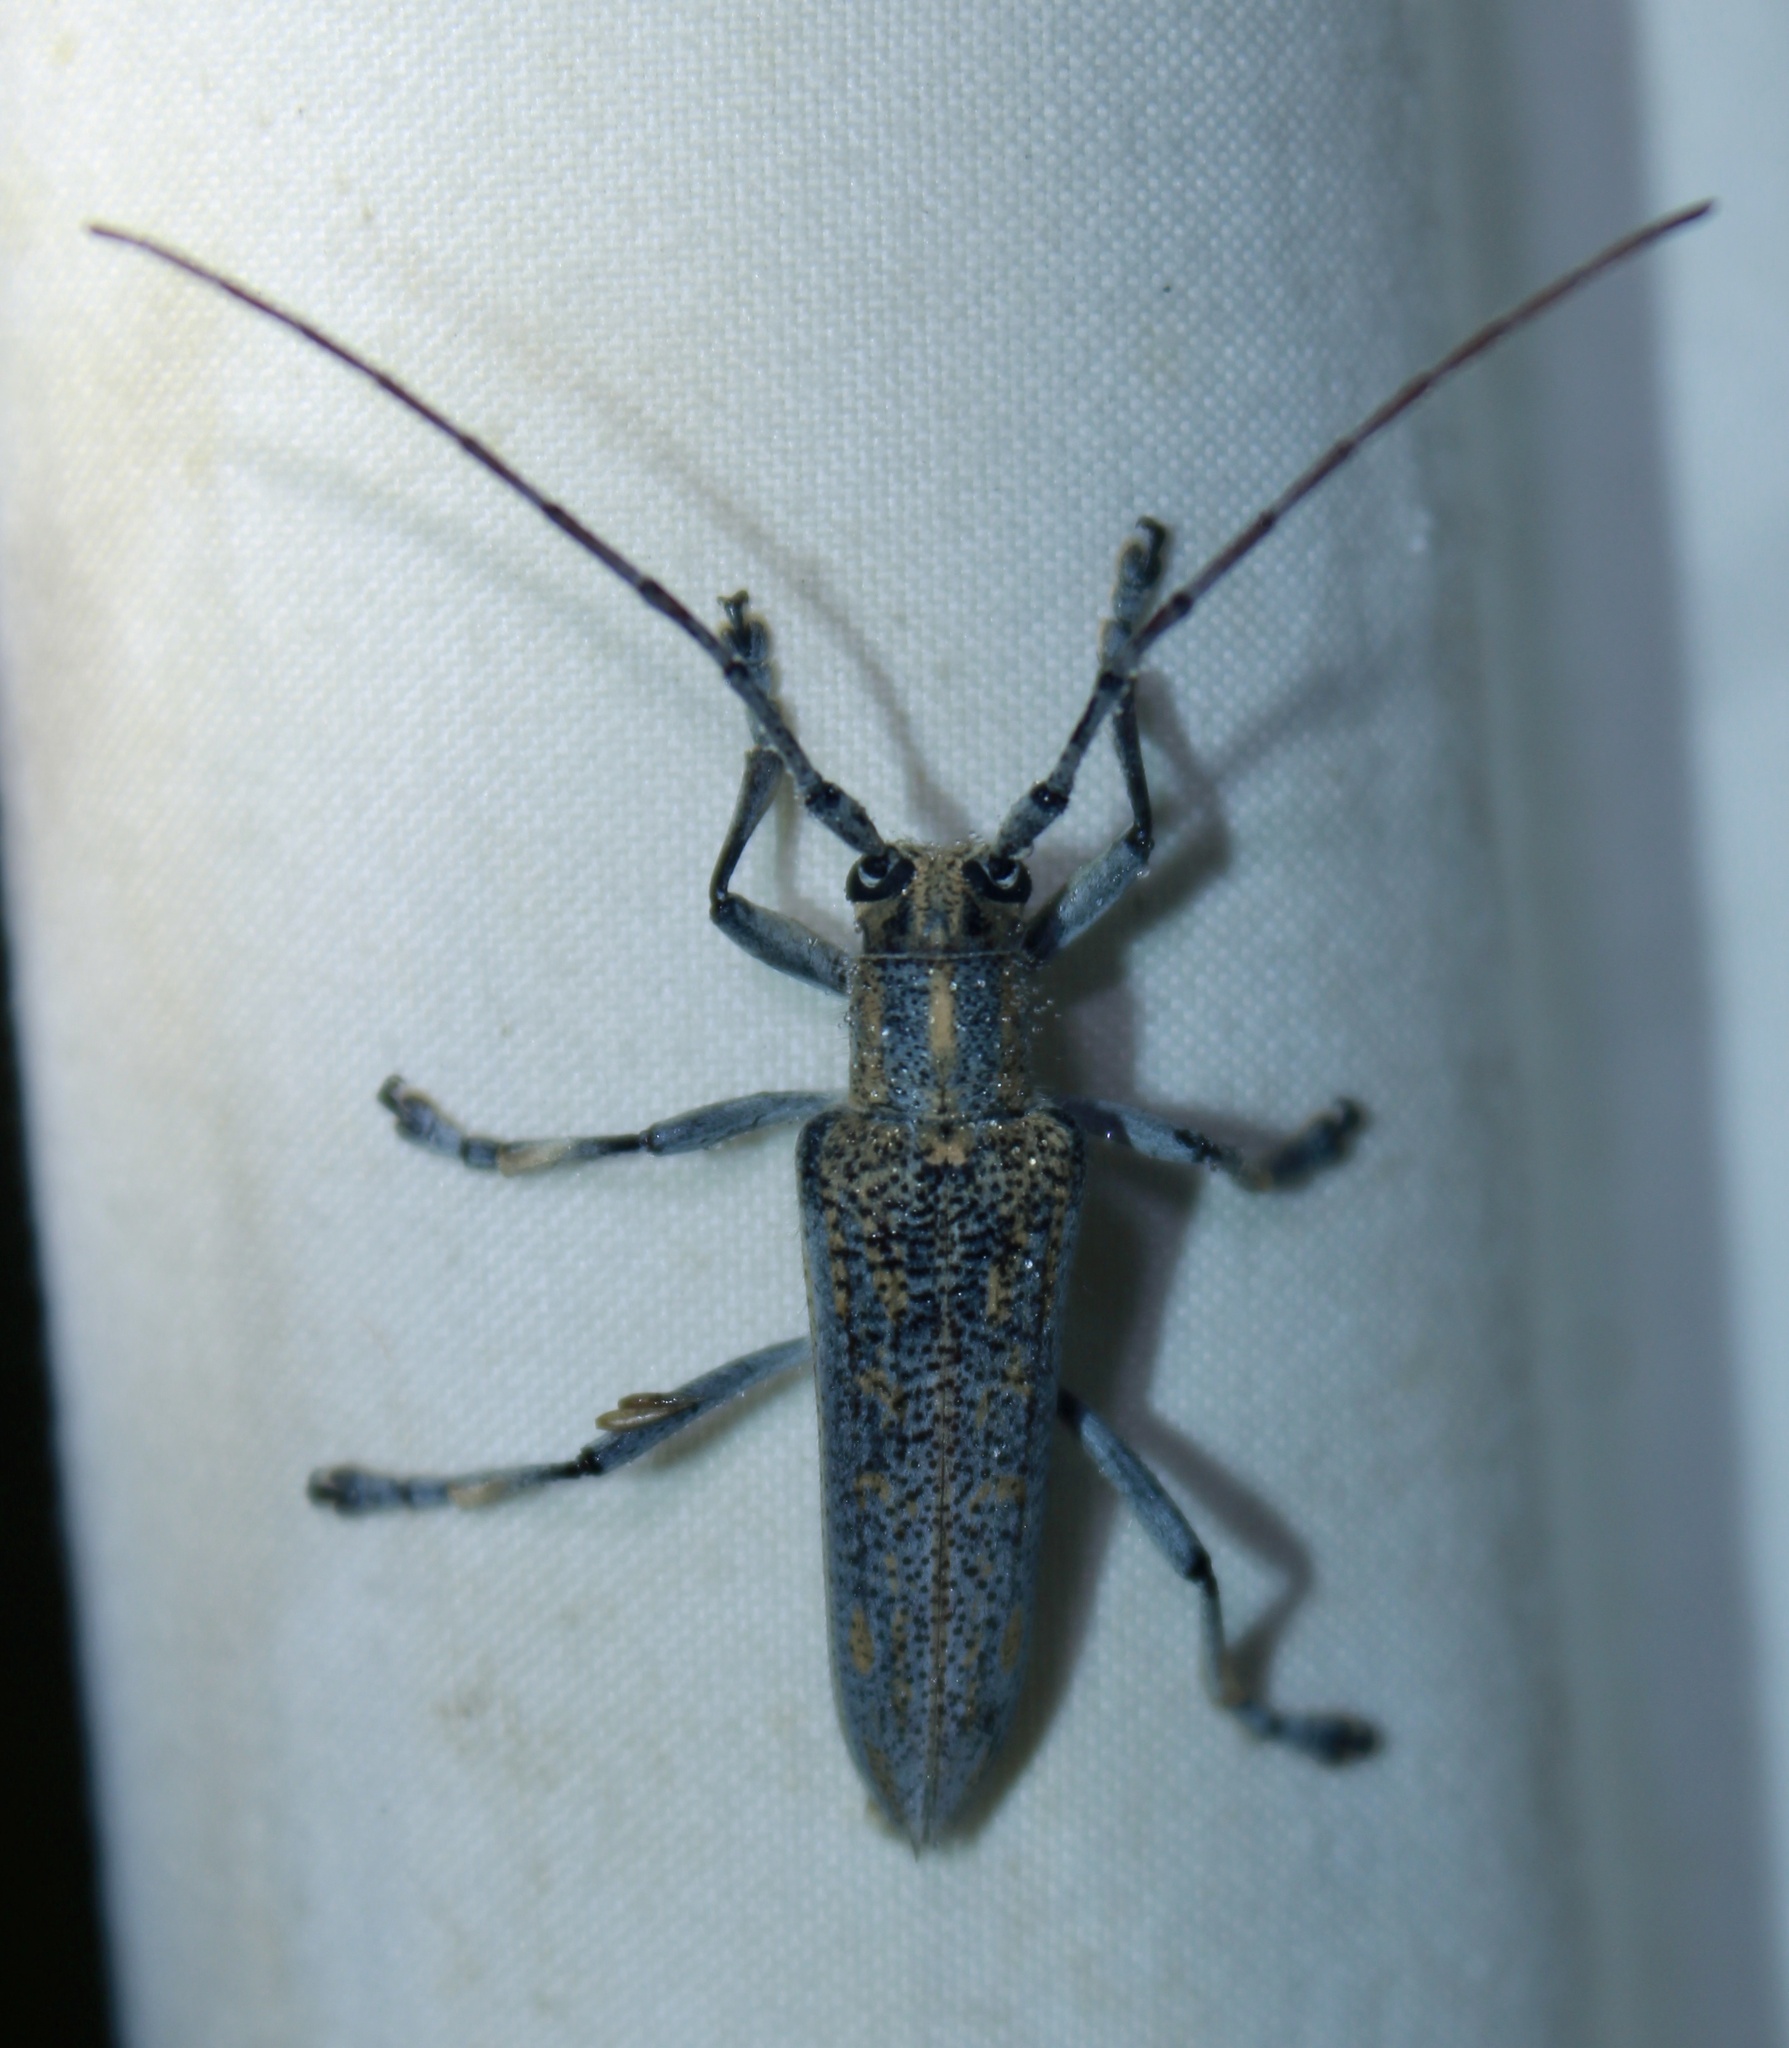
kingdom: Animalia
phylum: Arthropoda
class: Insecta
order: Coleoptera
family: Cerambycidae
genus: Saperda
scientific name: Saperda calcarata
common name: Poplar borer
